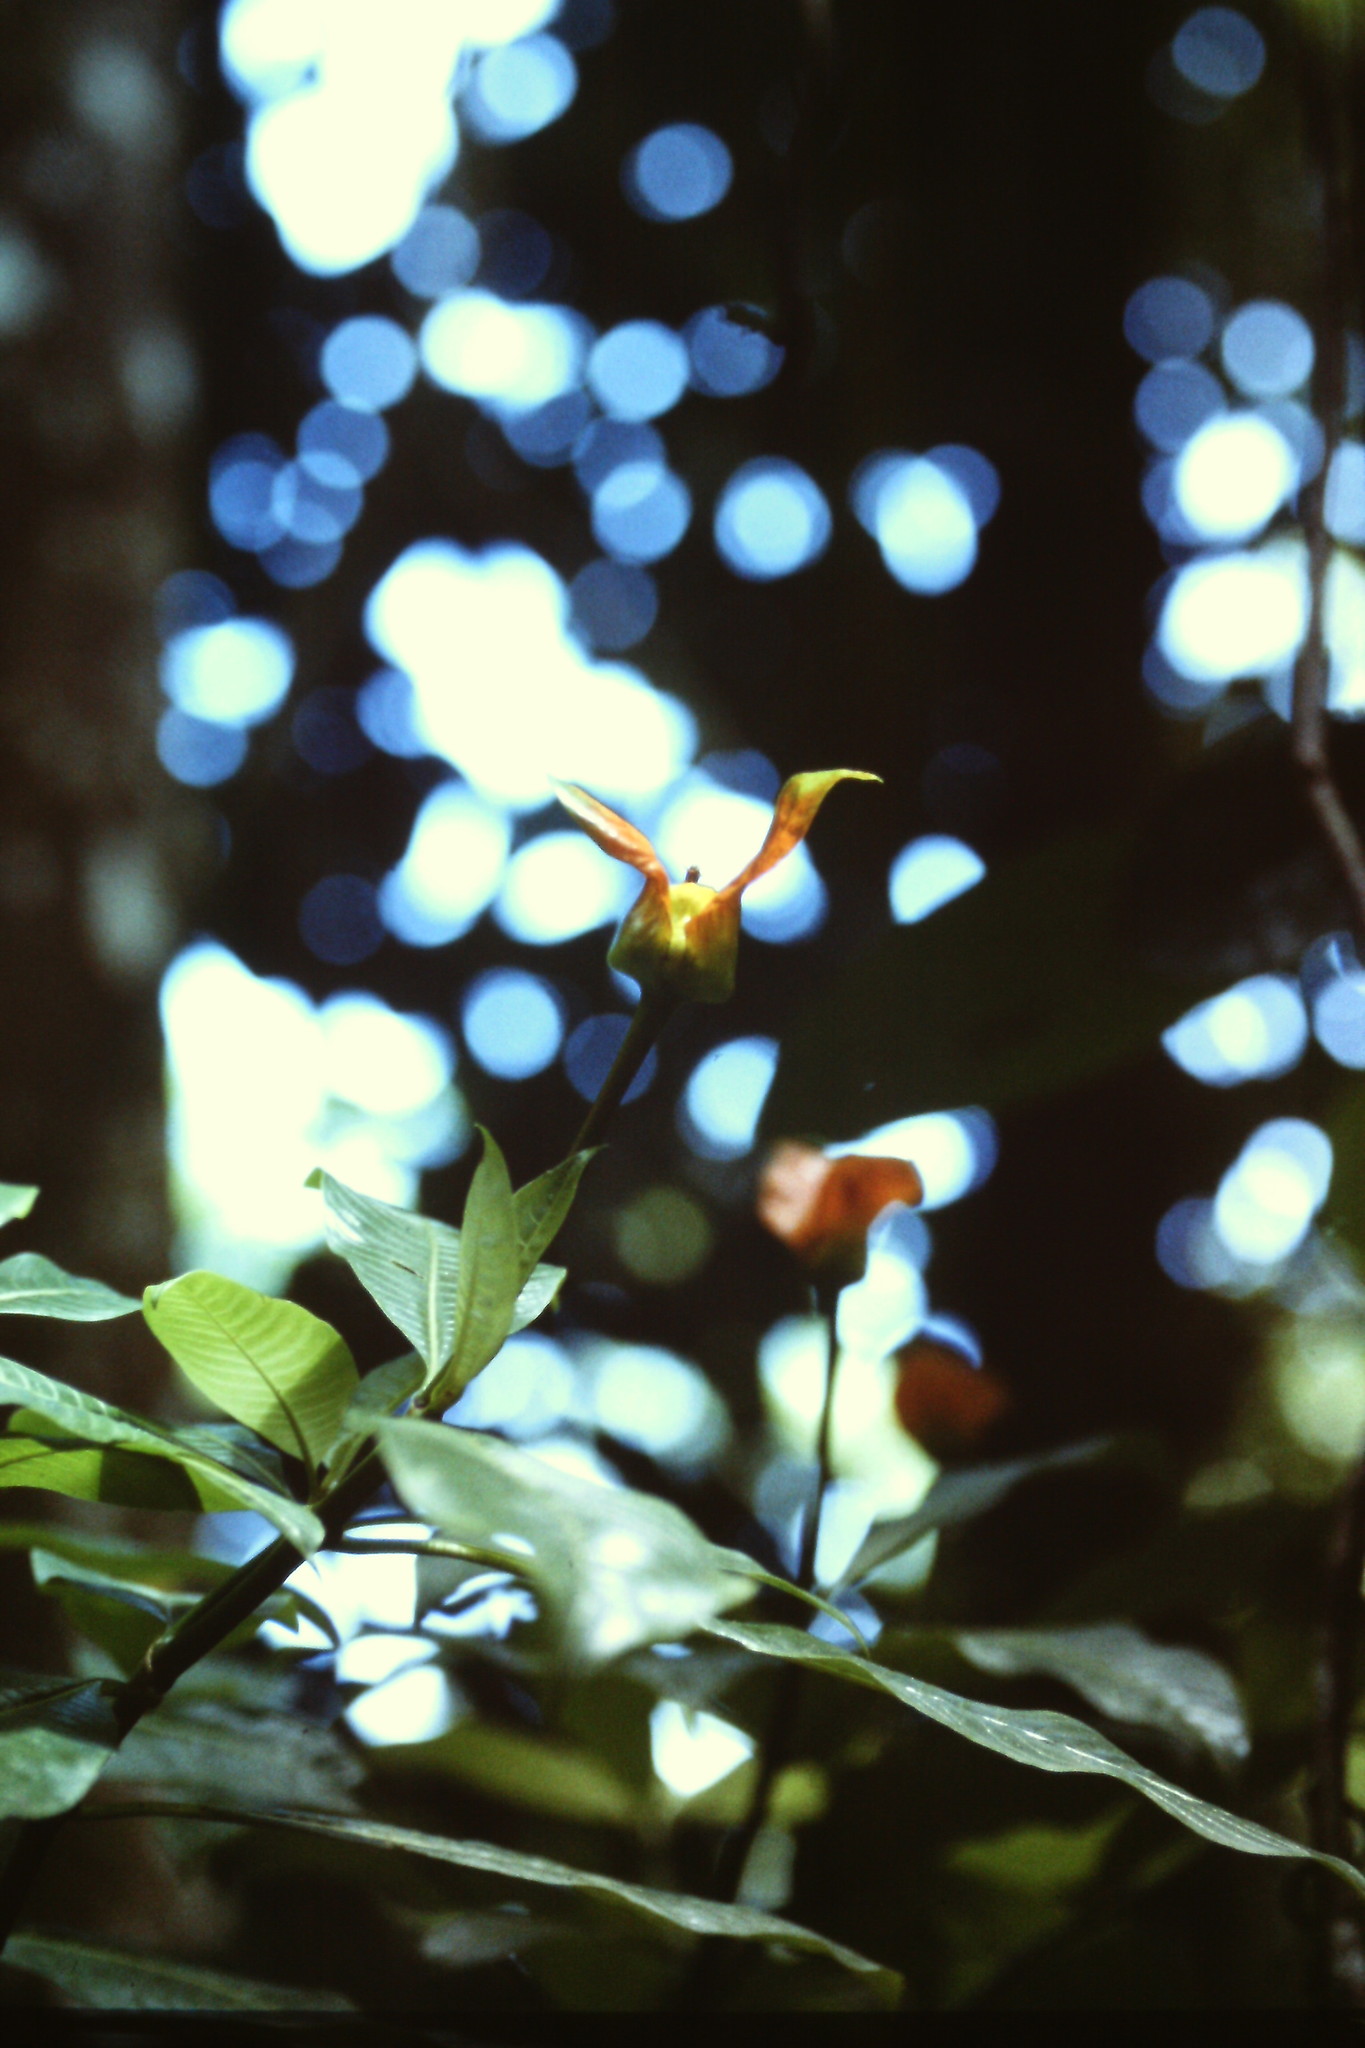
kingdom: Plantae
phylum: Tracheophyta
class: Magnoliopsida
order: Gentianales
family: Rubiaceae
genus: Palicourea
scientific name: Palicourea elata
